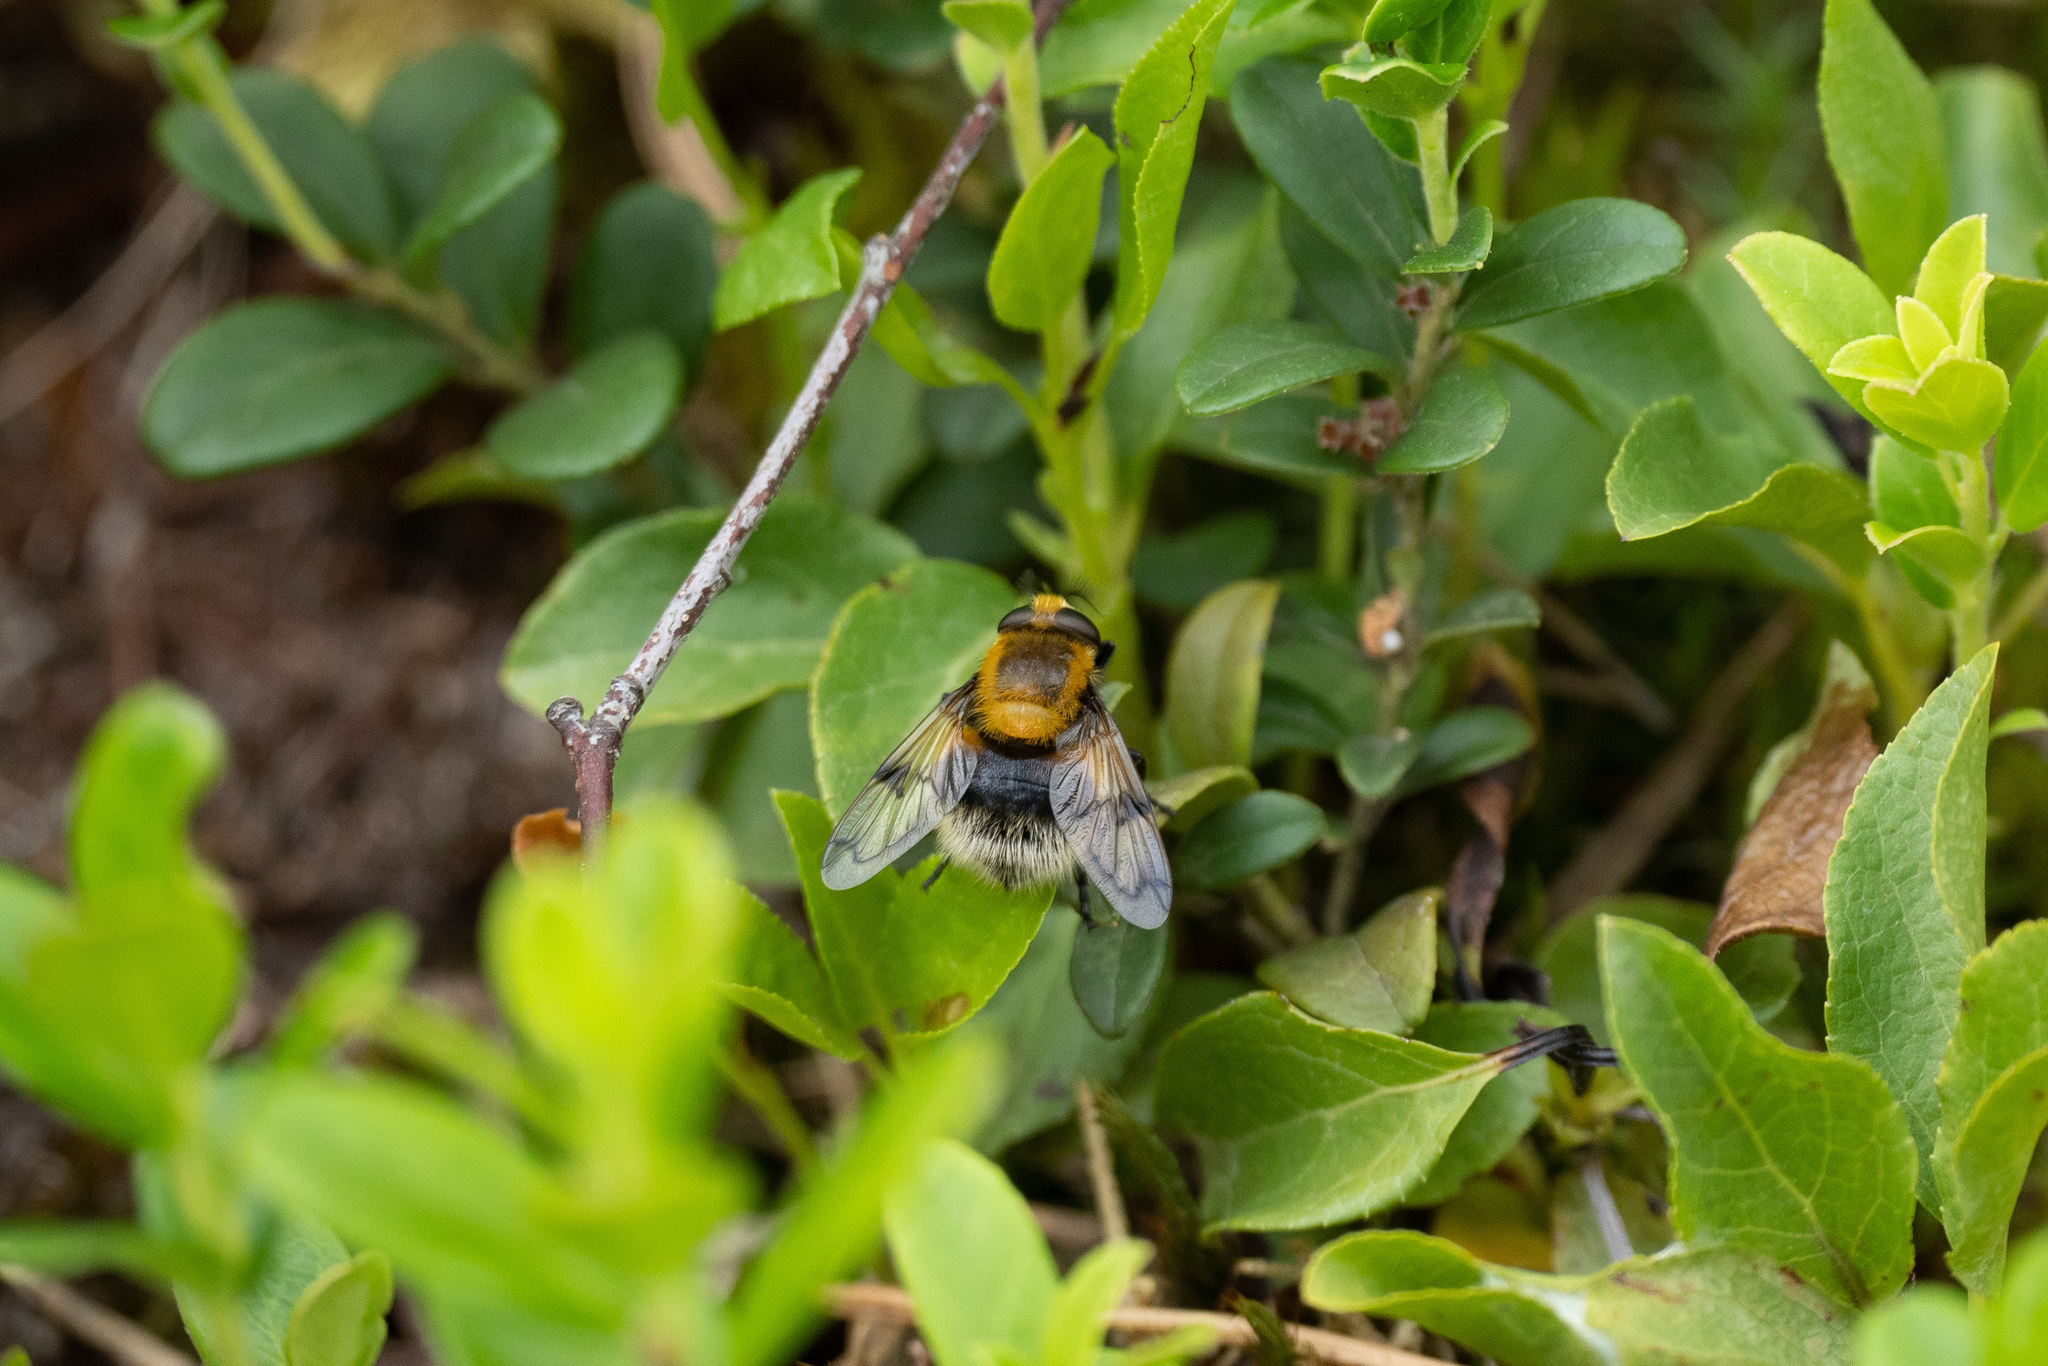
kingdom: Animalia
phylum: Arthropoda
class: Insecta
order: Diptera
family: Syrphidae
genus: Volucella
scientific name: Volucella bombylans
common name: Bumble bee hover fly
